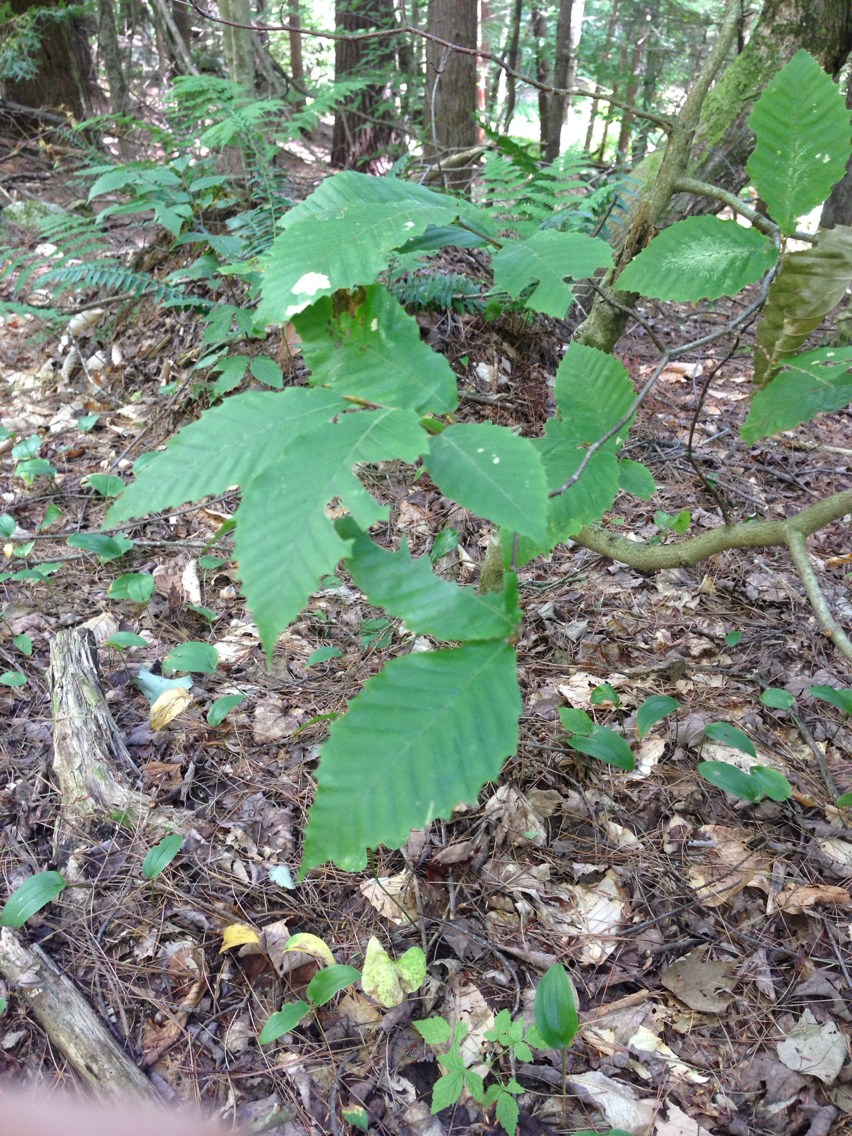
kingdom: Plantae
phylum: Tracheophyta
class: Magnoliopsida
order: Fagales
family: Fagaceae
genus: Fagus
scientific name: Fagus grandifolia
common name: American beech
